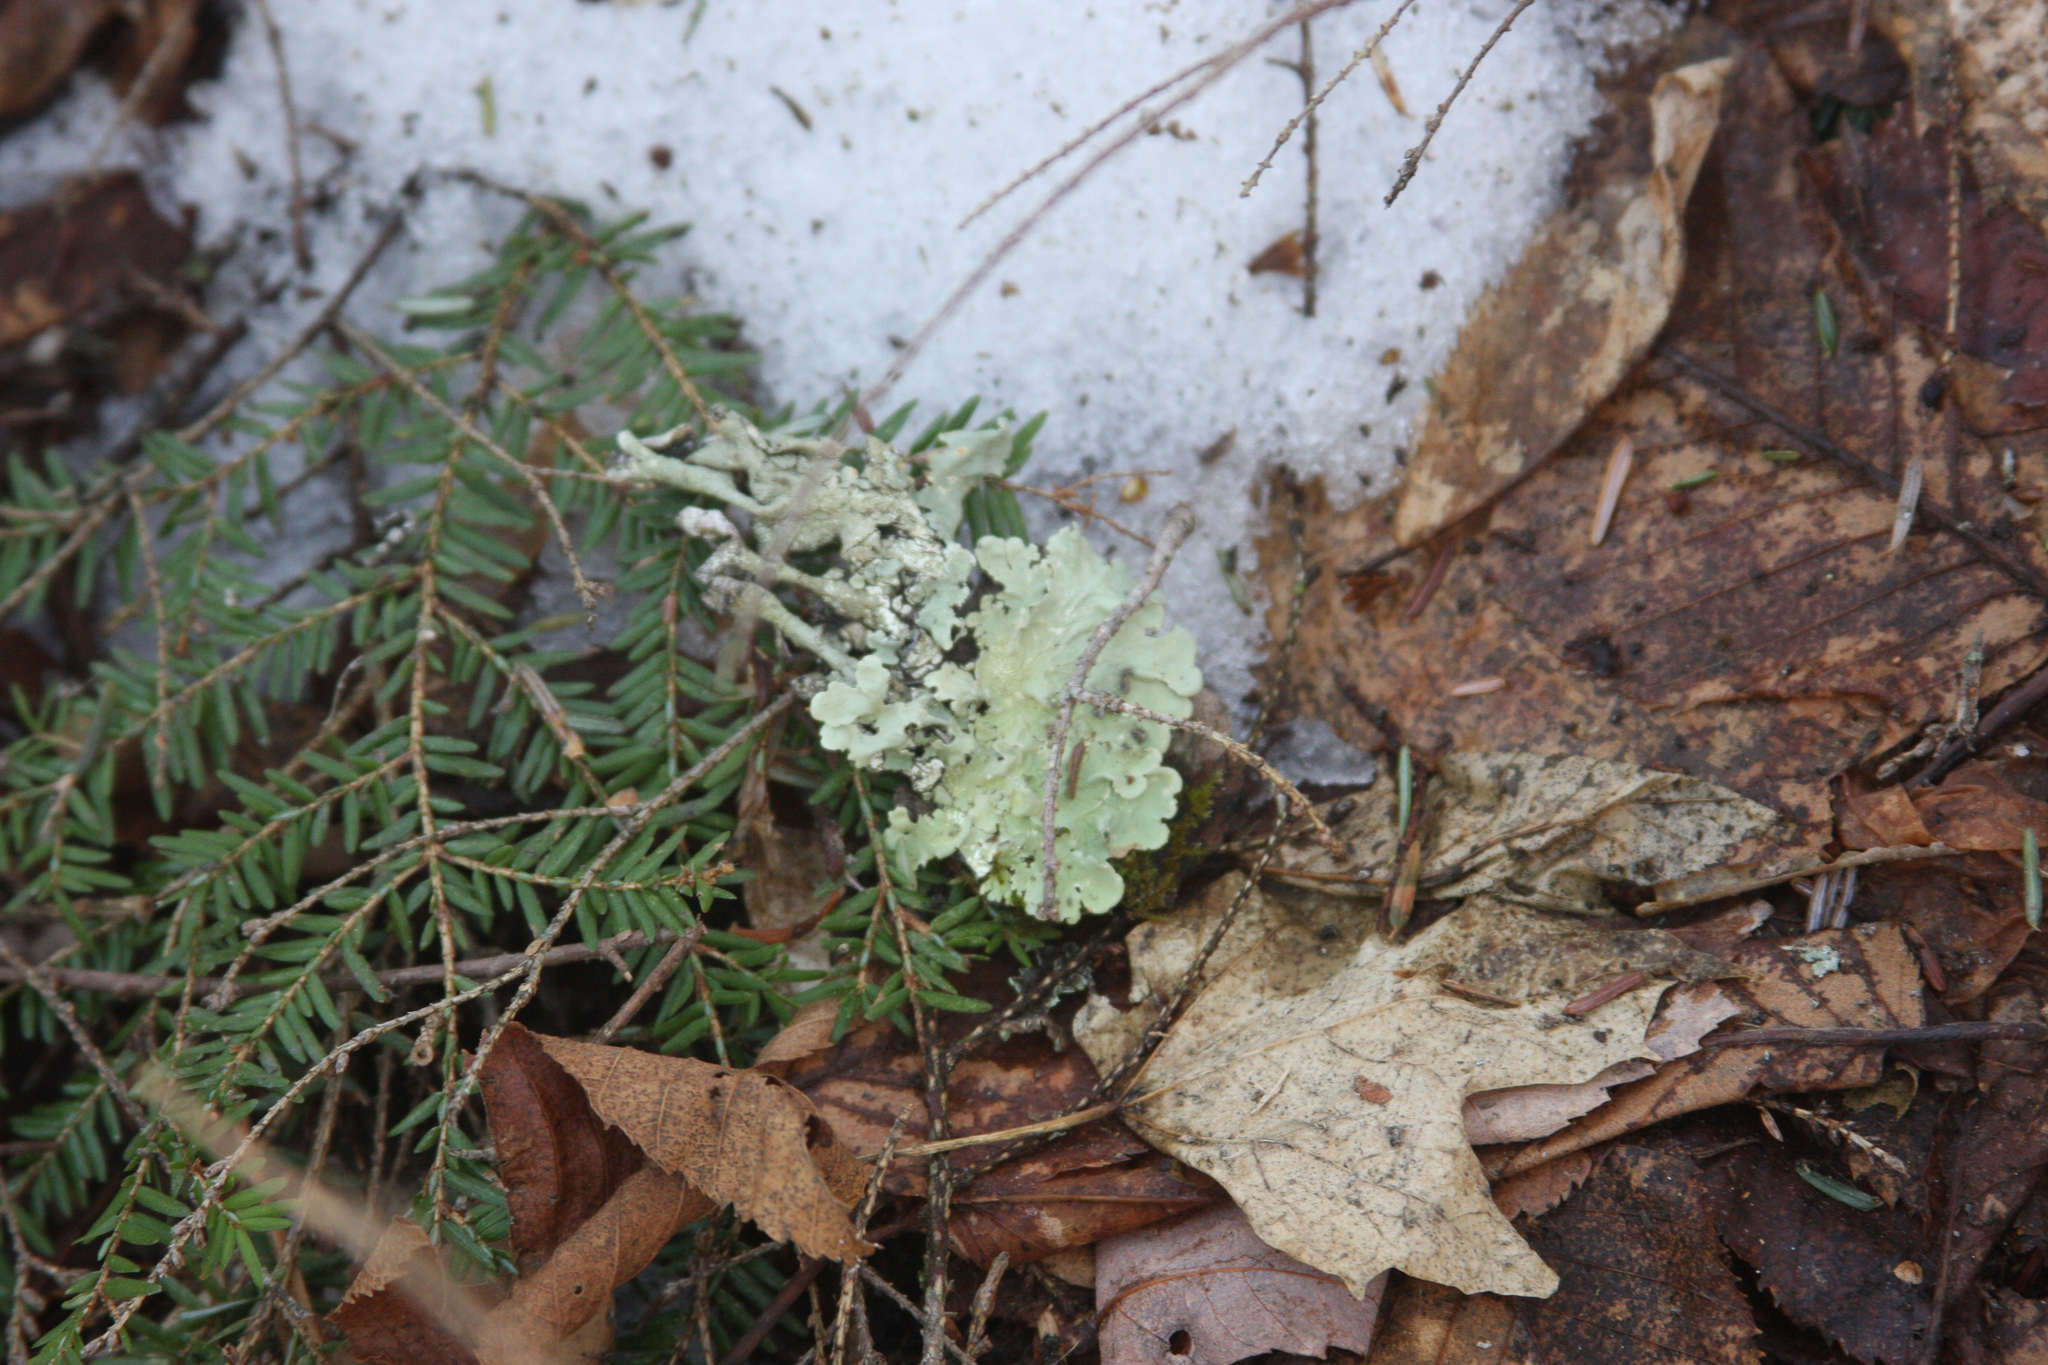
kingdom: Fungi
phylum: Ascomycota
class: Lecanoromycetes
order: Lecanorales
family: Parmeliaceae
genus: Flavoparmelia
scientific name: Flavoparmelia caperata
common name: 40-mile per hour lichen
